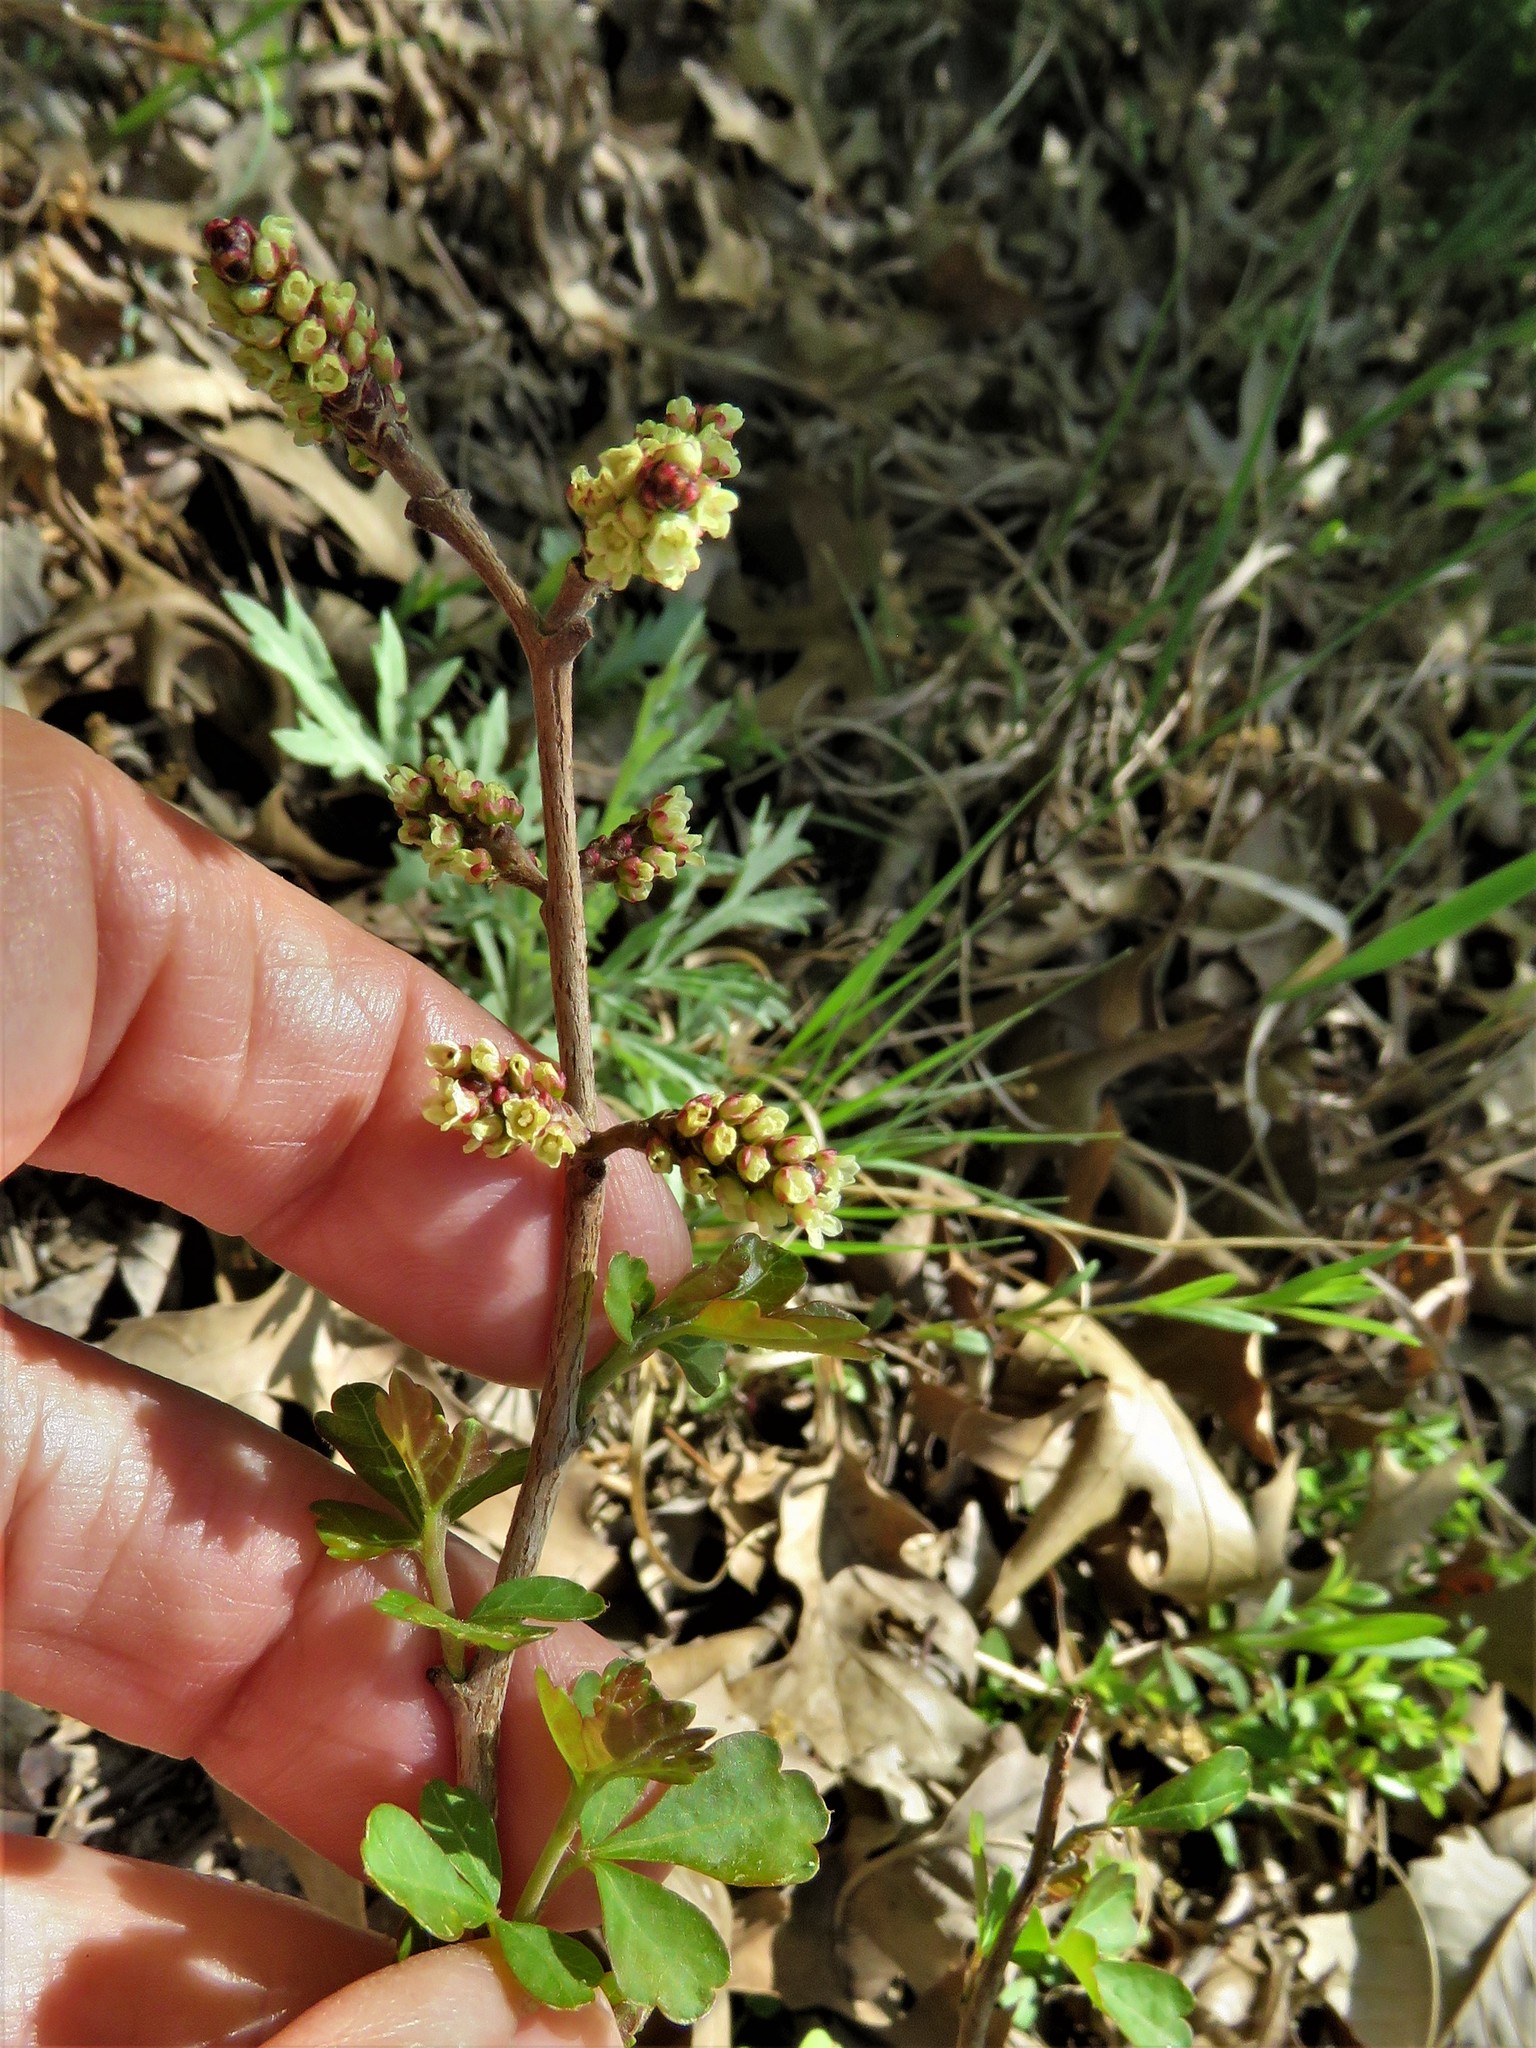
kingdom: Plantae
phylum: Tracheophyta
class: Magnoliopsida
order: Sapindales
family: Anacardiaceae
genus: Rhus
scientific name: Rhus aromatica
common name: Aromatic sumac
